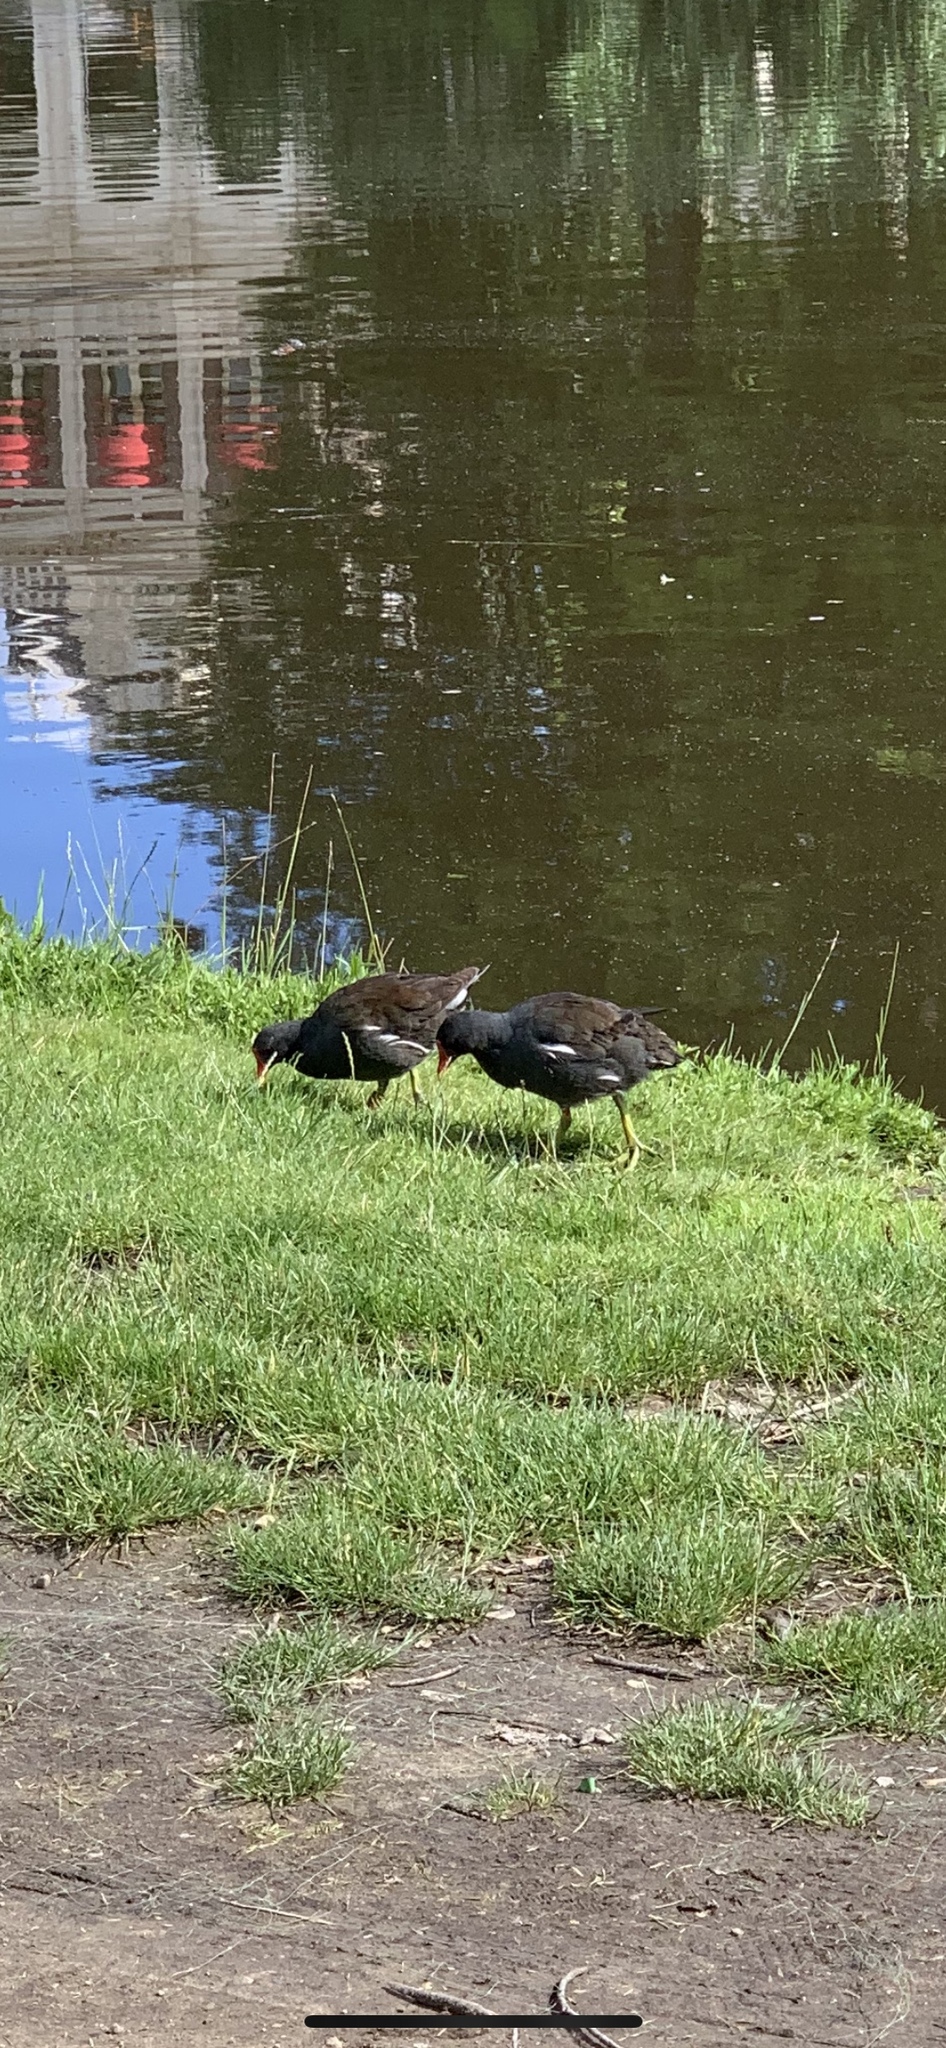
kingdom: Animalia
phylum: Chordata
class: Aves
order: Gruiformes
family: Rallidae
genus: Gallinula
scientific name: Gallinula chloropus
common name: Common moorhen
